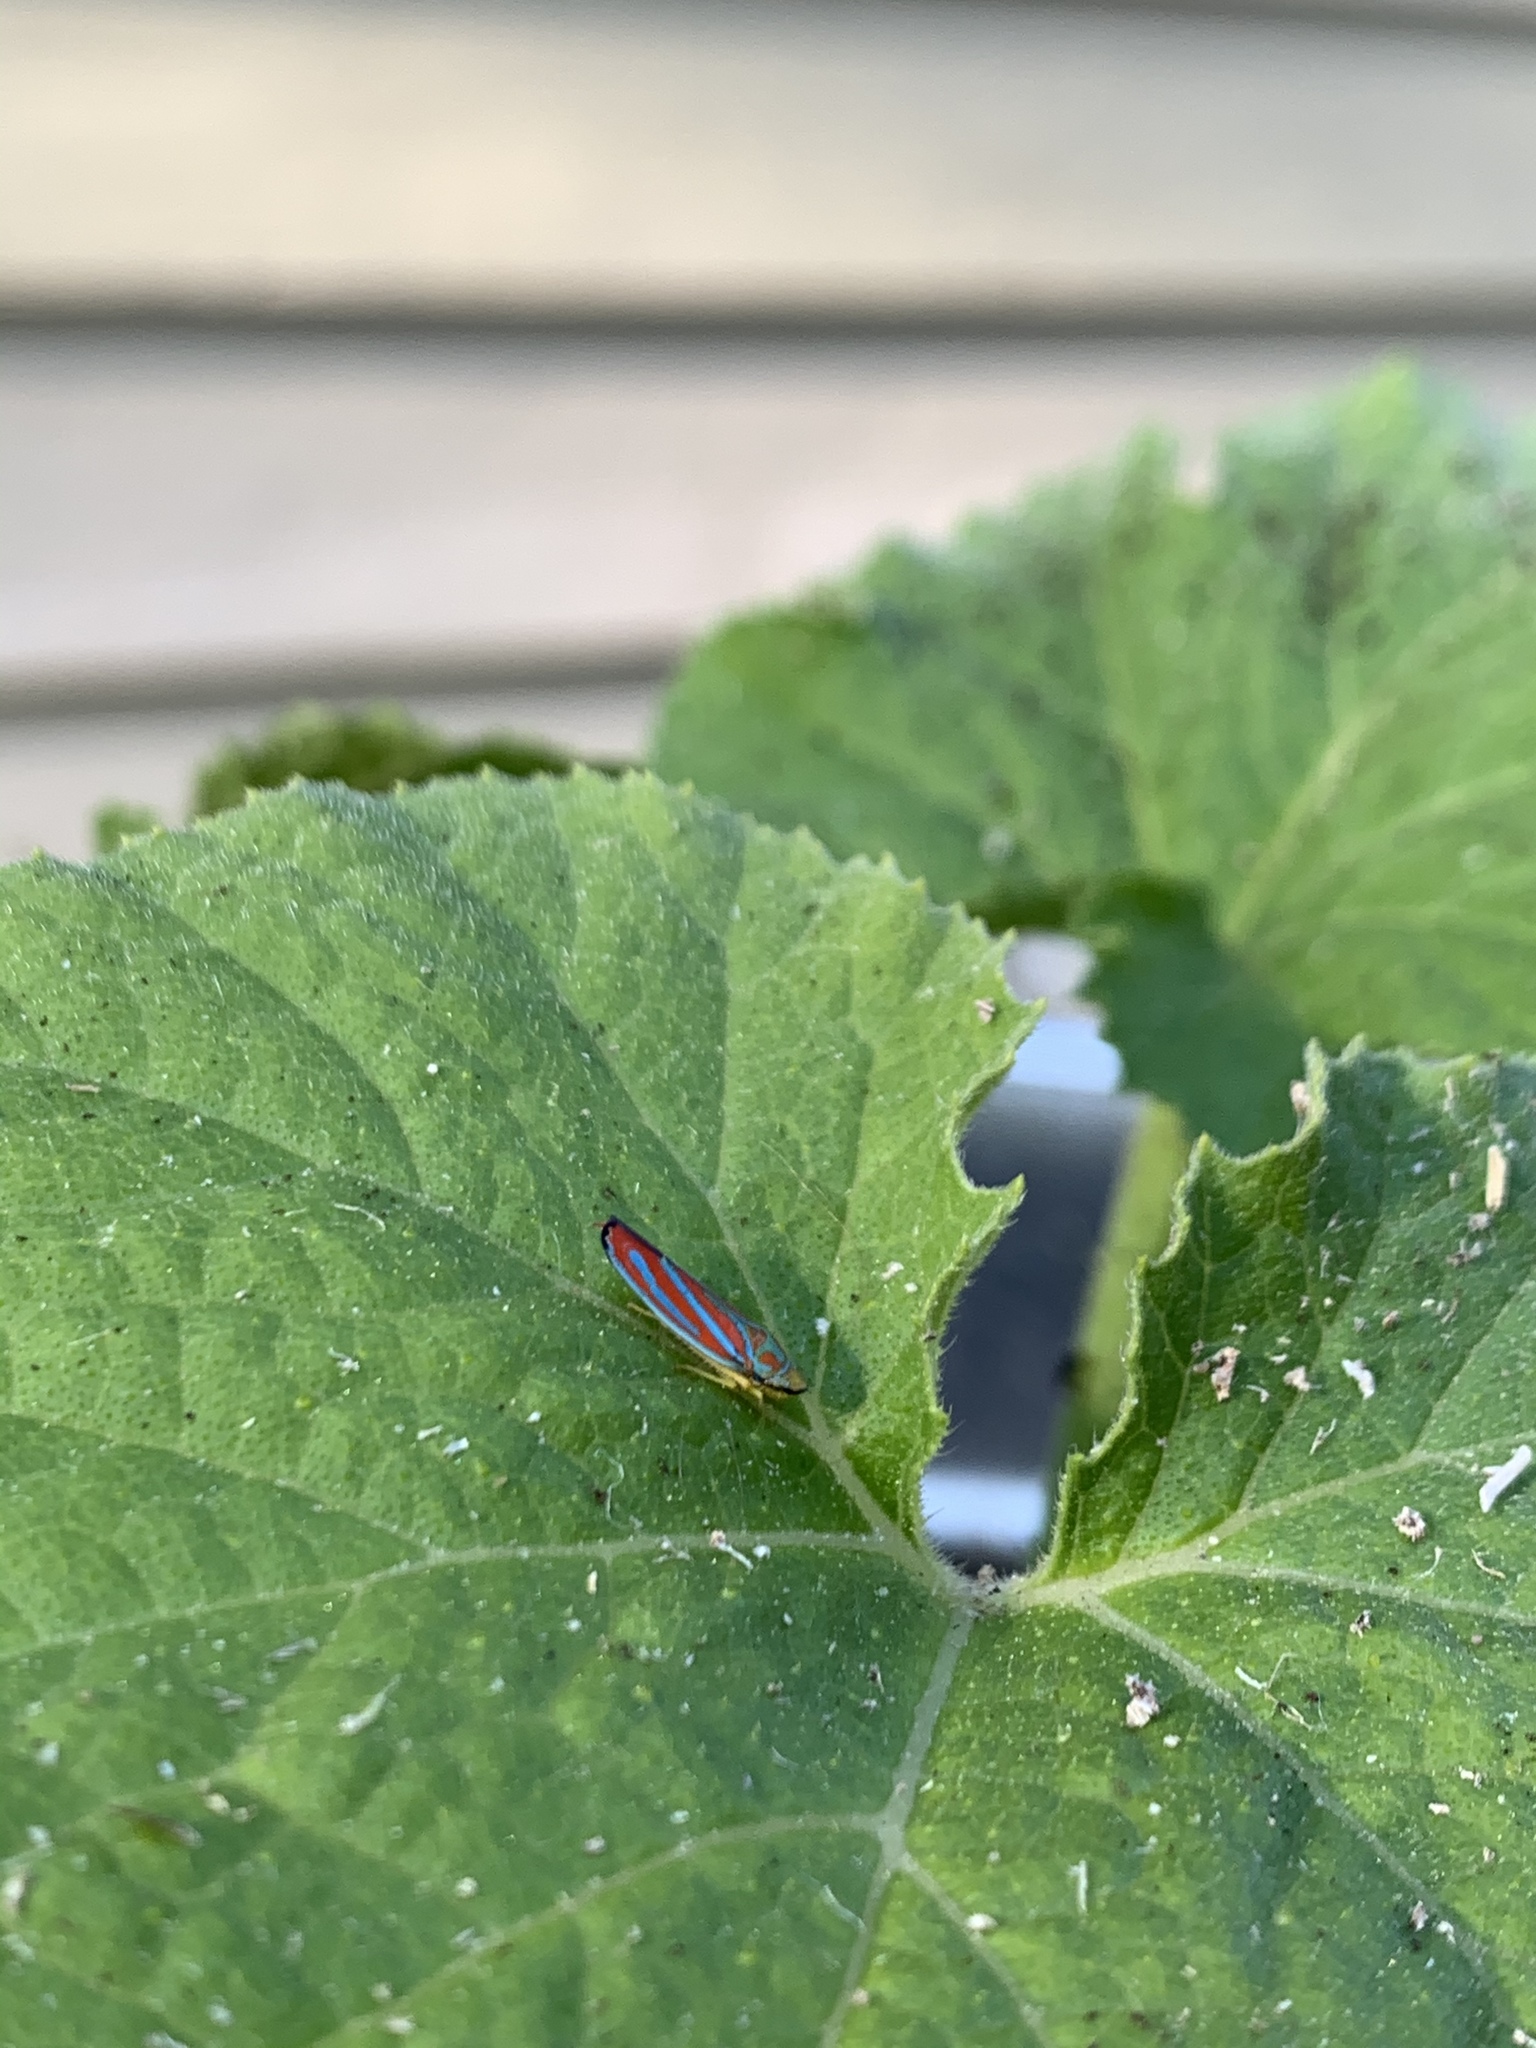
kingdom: Animalia
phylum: Arthropoda
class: Insecta
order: Hemiptera
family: Cicadellidae
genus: Graphocephala
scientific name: Graphocephala coccinea
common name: Candy-striped leafhopper
